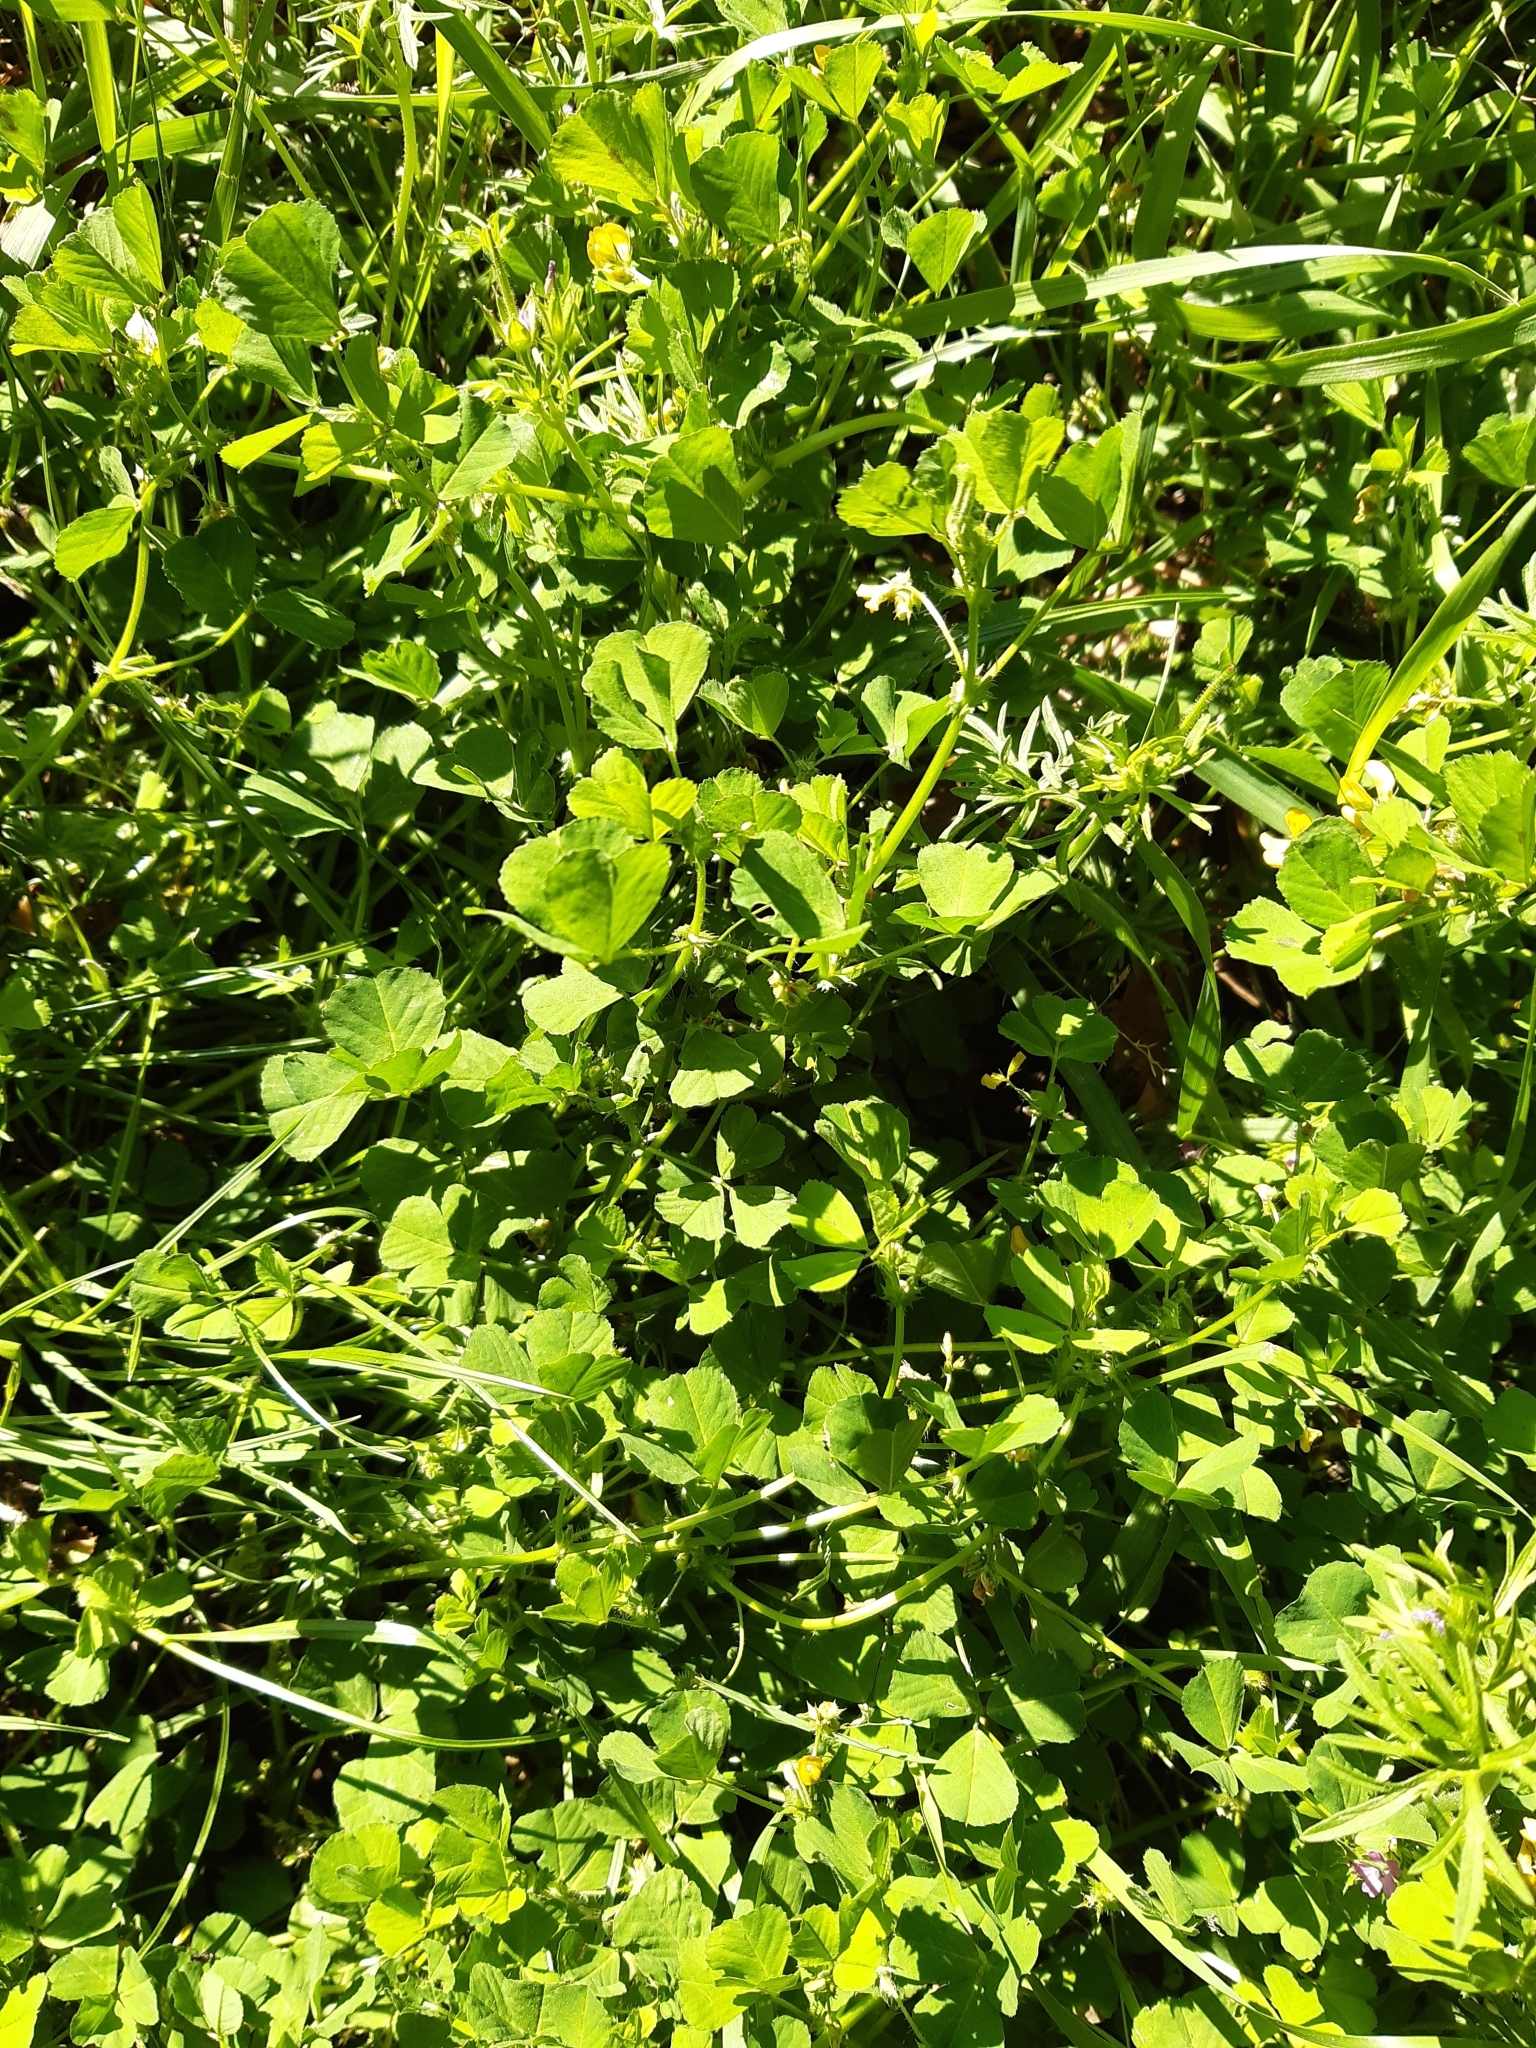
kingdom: Plantae
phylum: Tracheophyta
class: Magnoliopsida
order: Fabales
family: Fabaceae
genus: Medicago
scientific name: Medicago arabica
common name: Spotted medick
